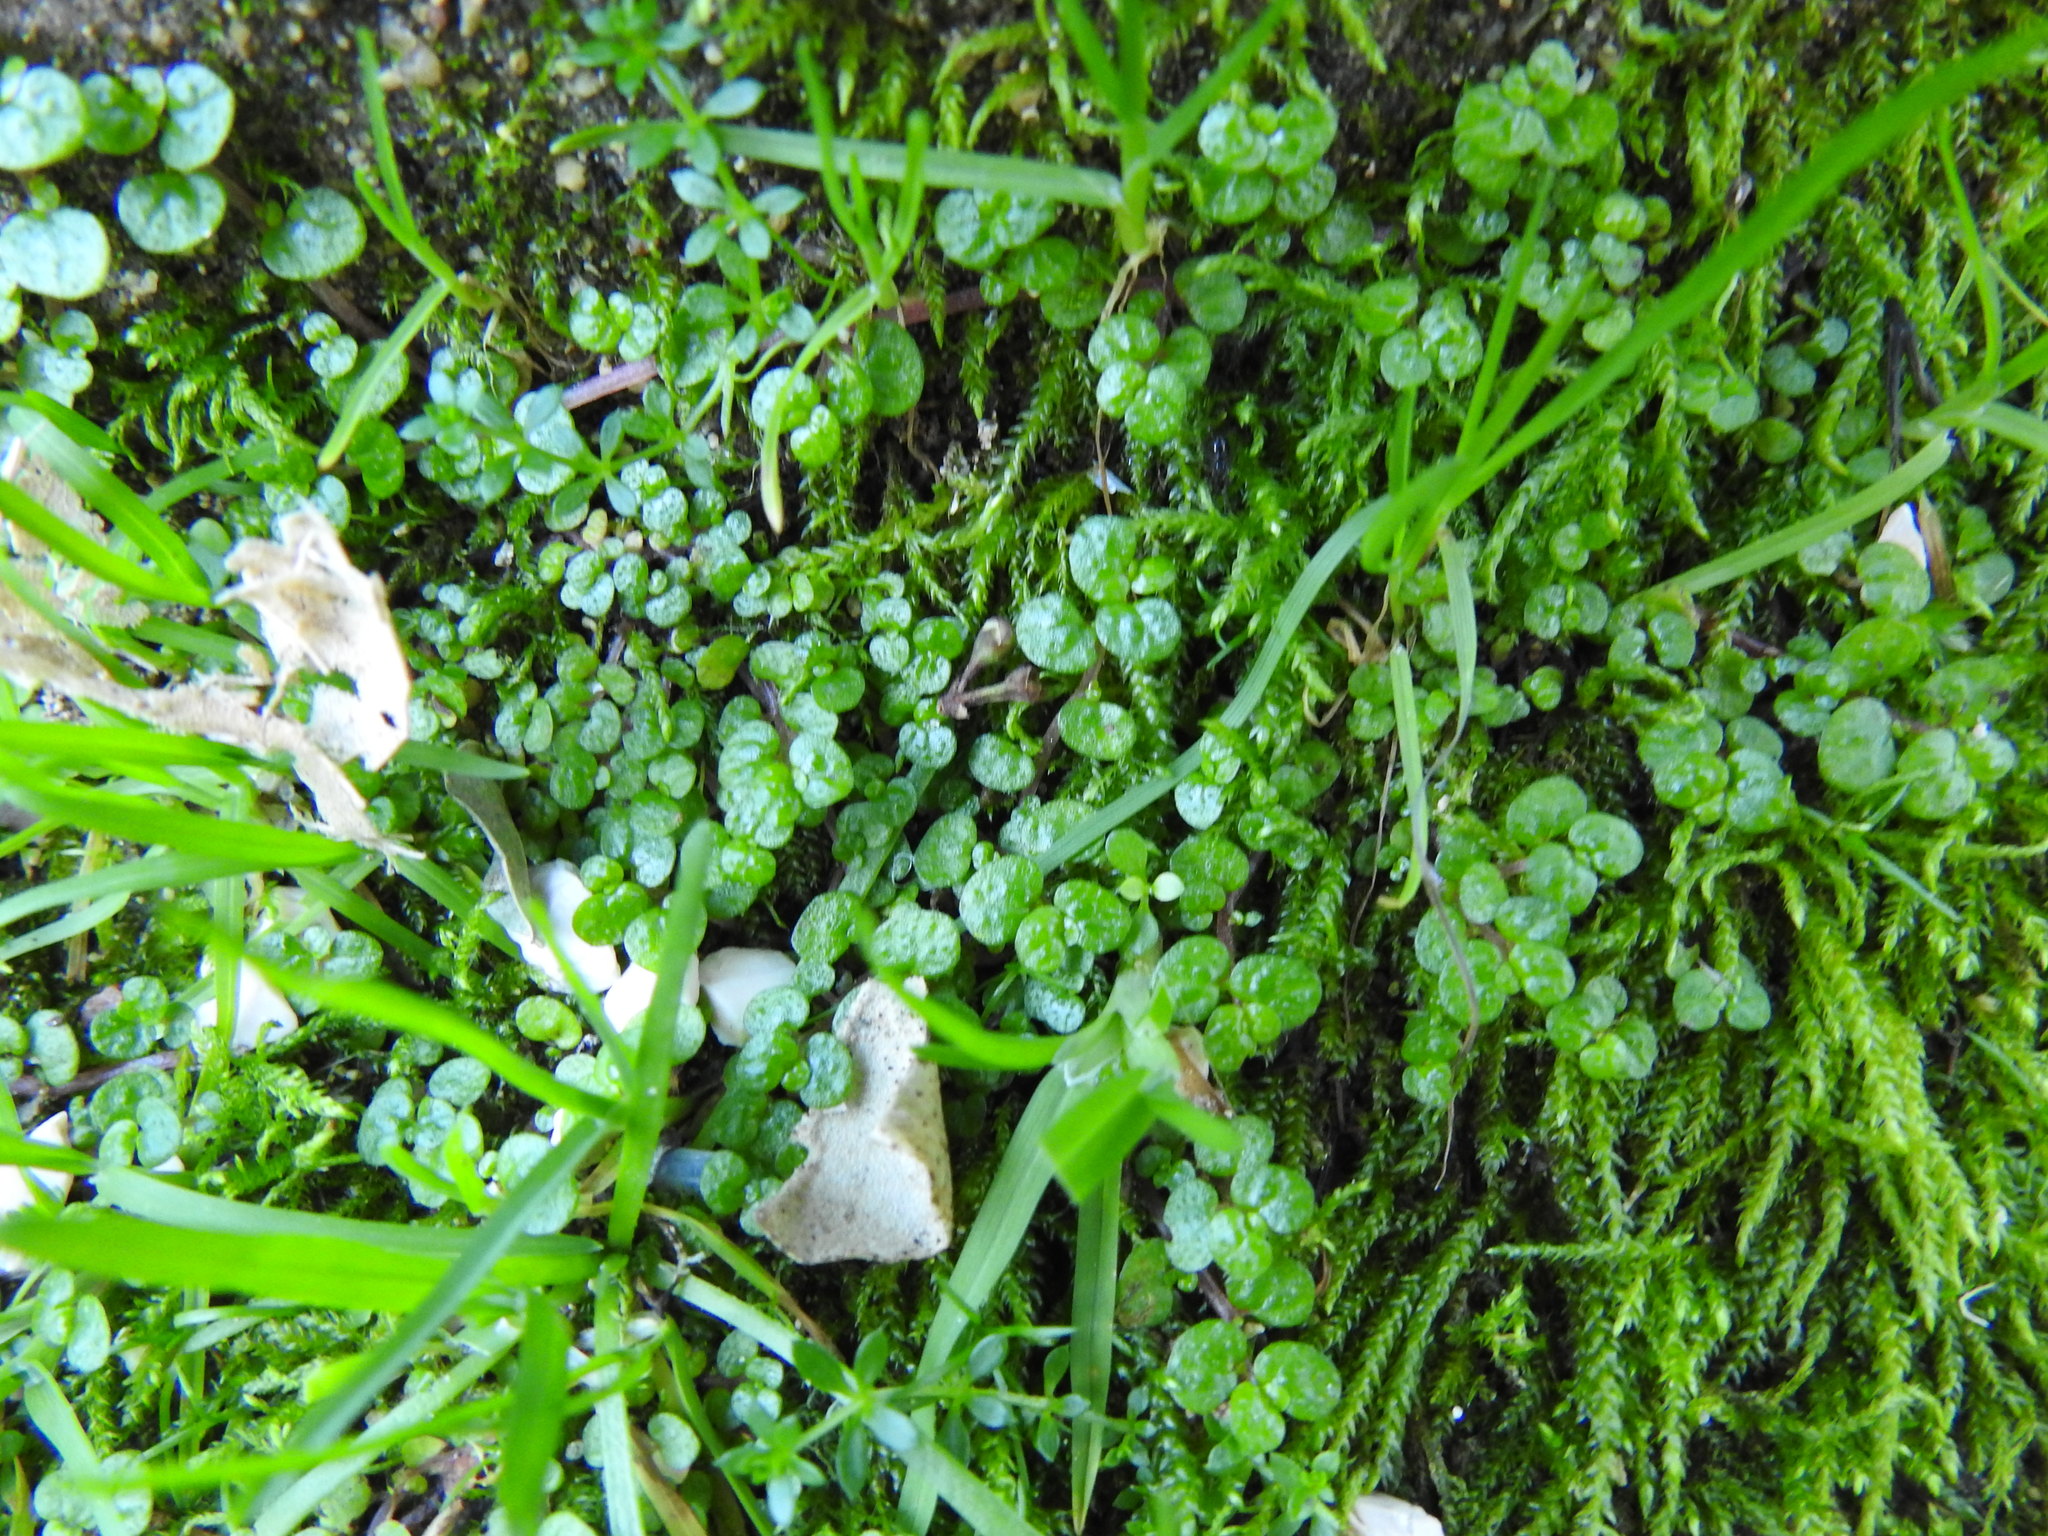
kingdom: Plantae
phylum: Tracheophyta
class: Magnoliopsida
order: Rosales
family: Urticaceae
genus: Soleirolia
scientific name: Soleirolia soleirolii
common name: Mind-your-own-business
